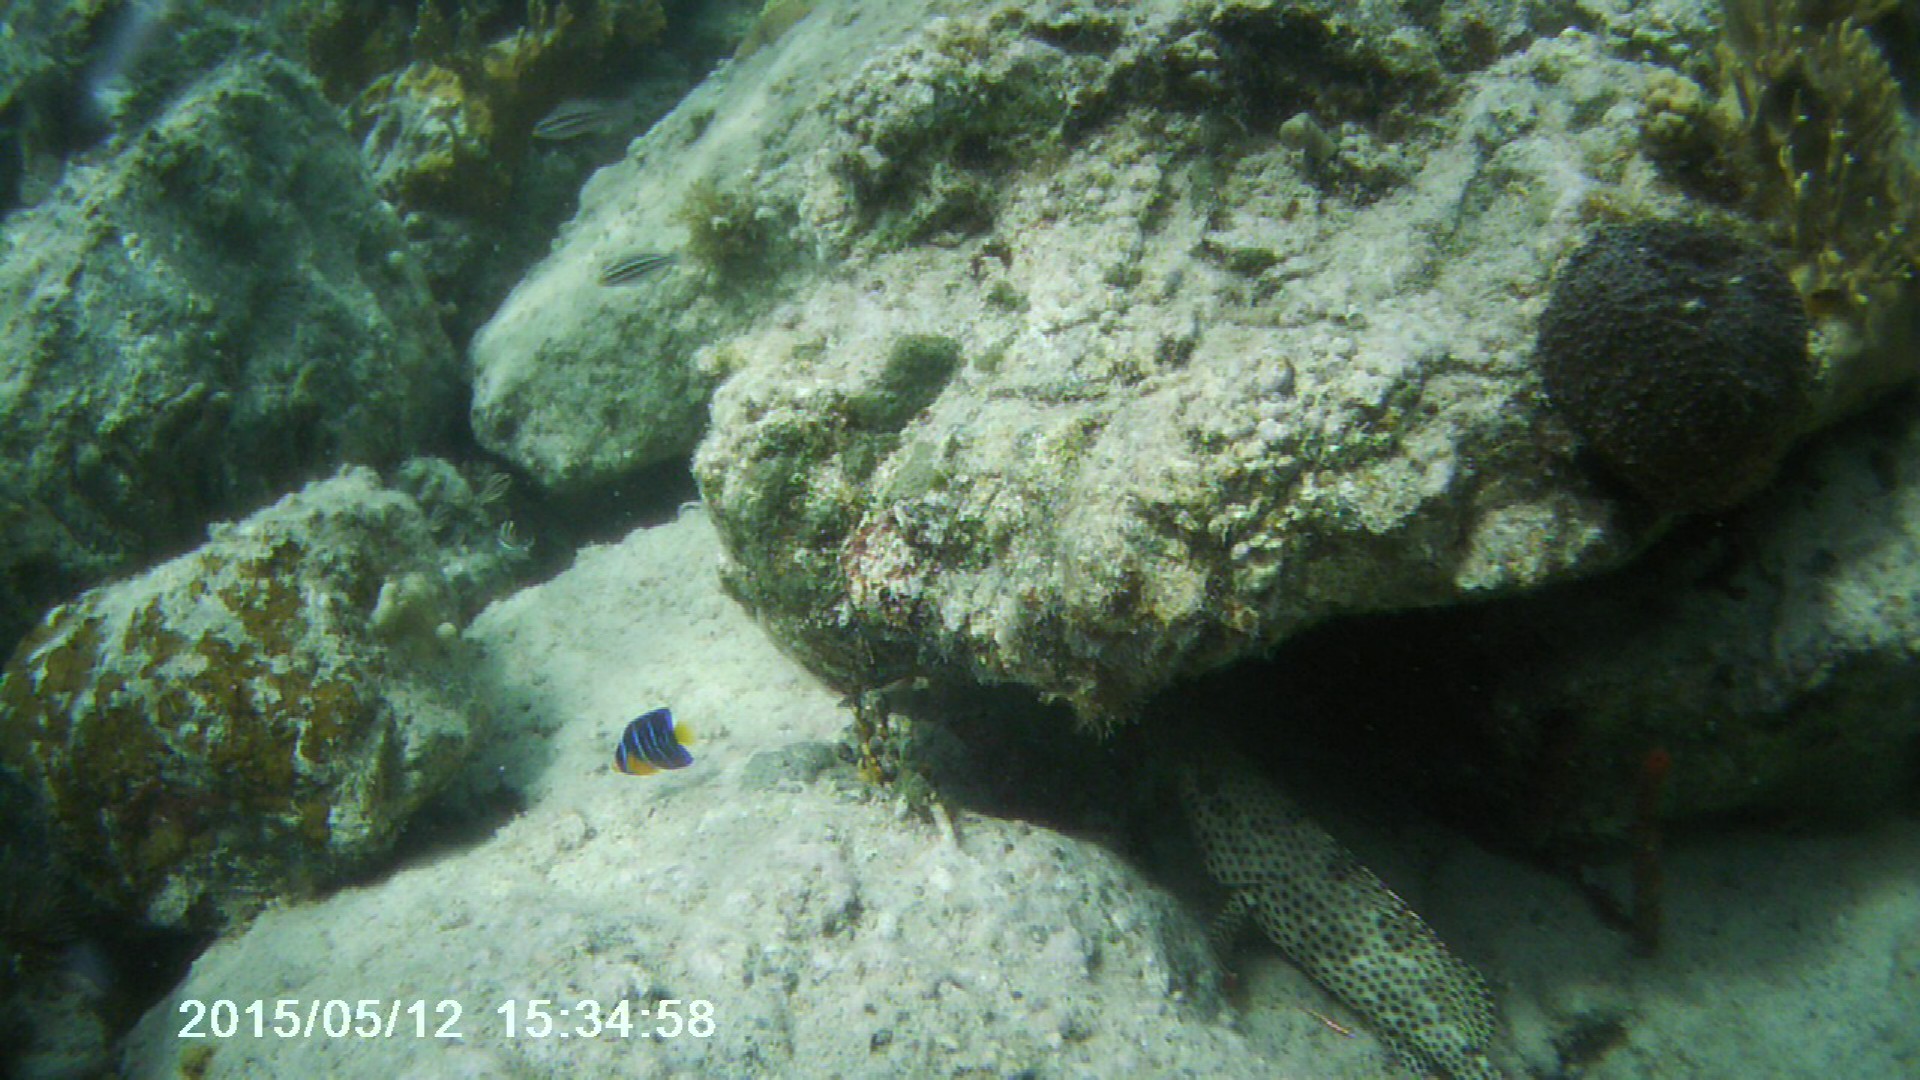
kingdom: Animalia
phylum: Chordata
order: Perciformes
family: Pomacanthidae
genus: Holacanthus
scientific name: Holacanthus ciliaris
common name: Queen angelfish
